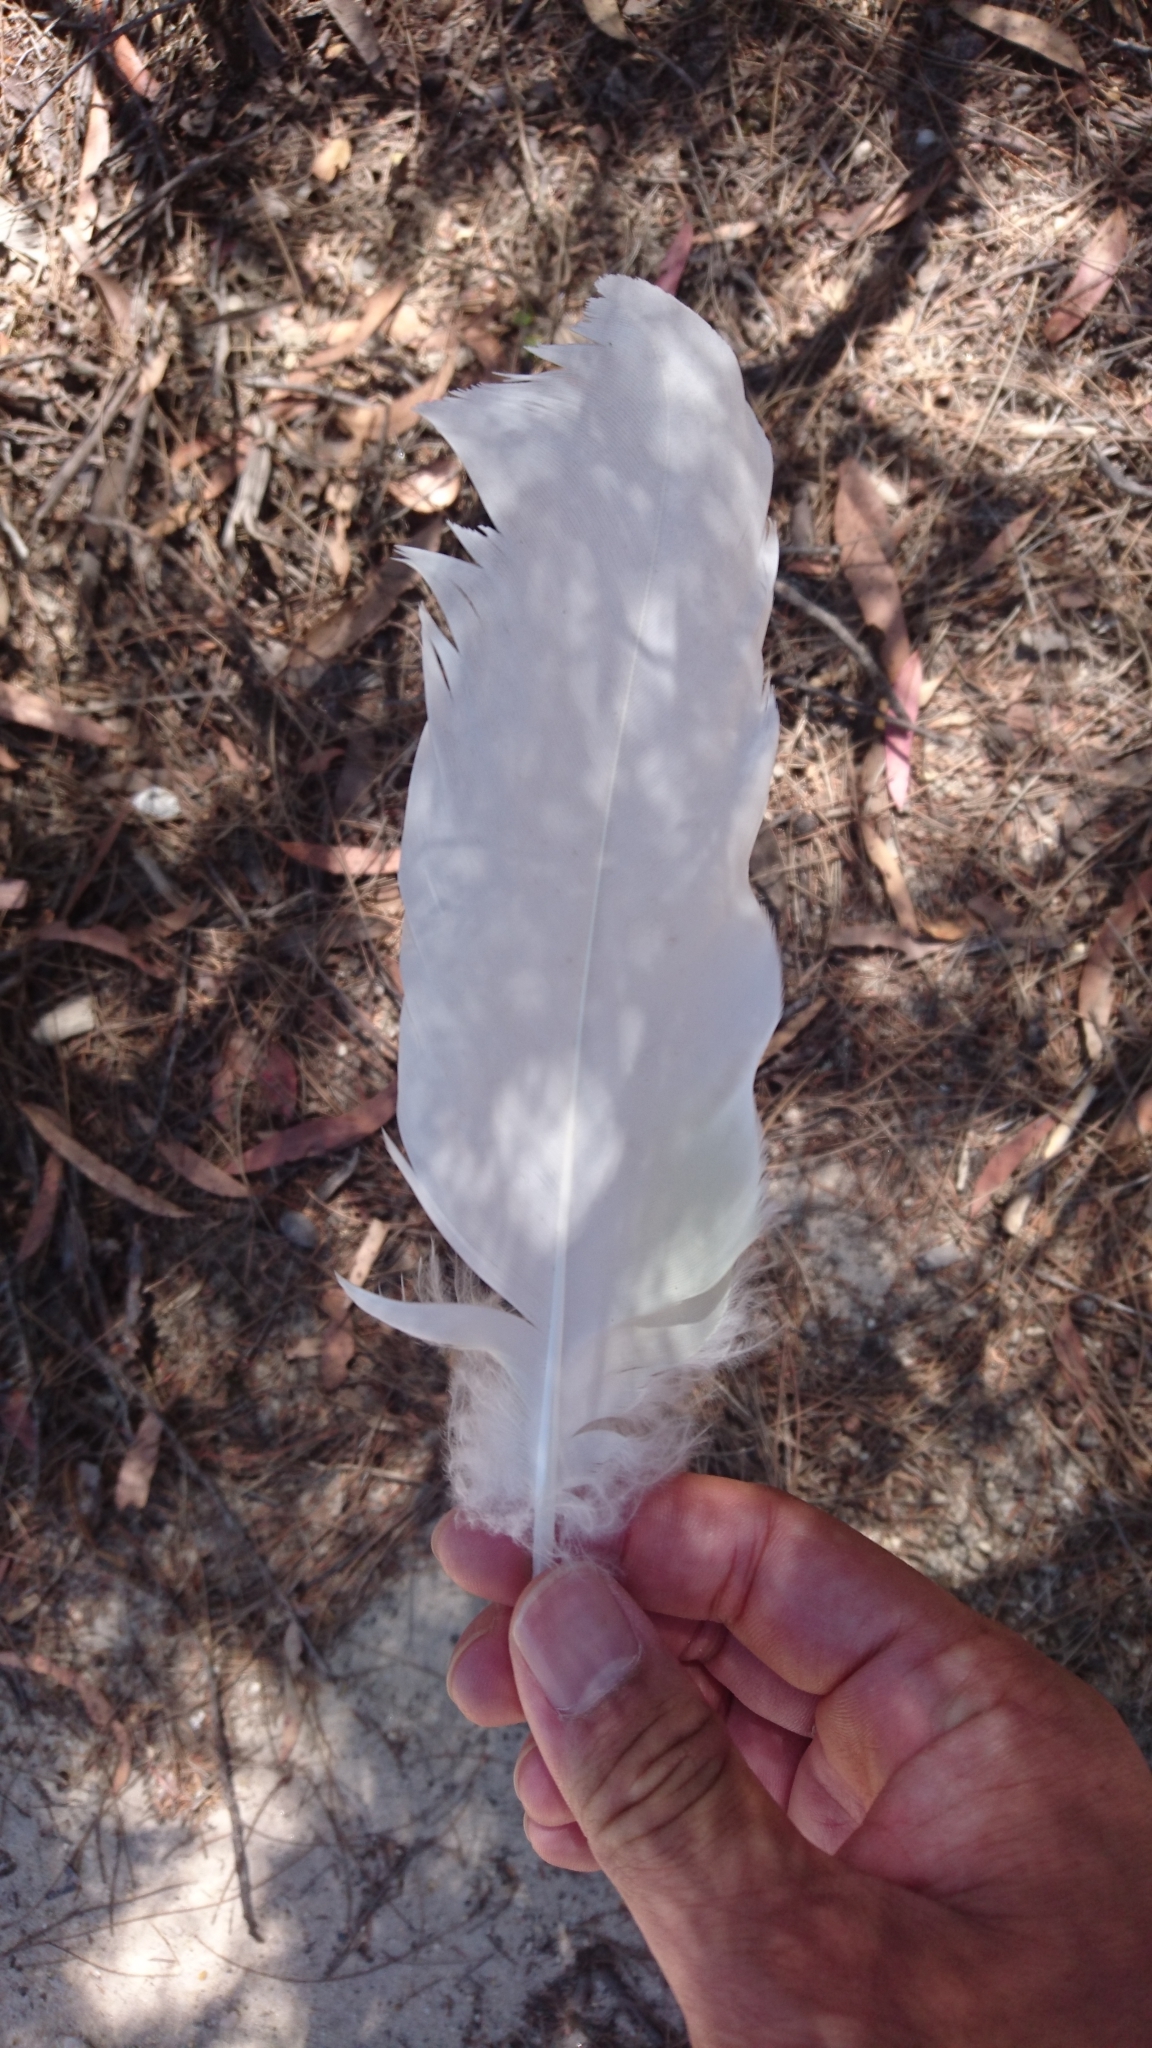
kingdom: Animalia
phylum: Chordata
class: Aves
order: Psittaciformes
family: Psittacidae
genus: Cacatua
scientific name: Cacatua galerita
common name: Sulphur-crested cockatoo
